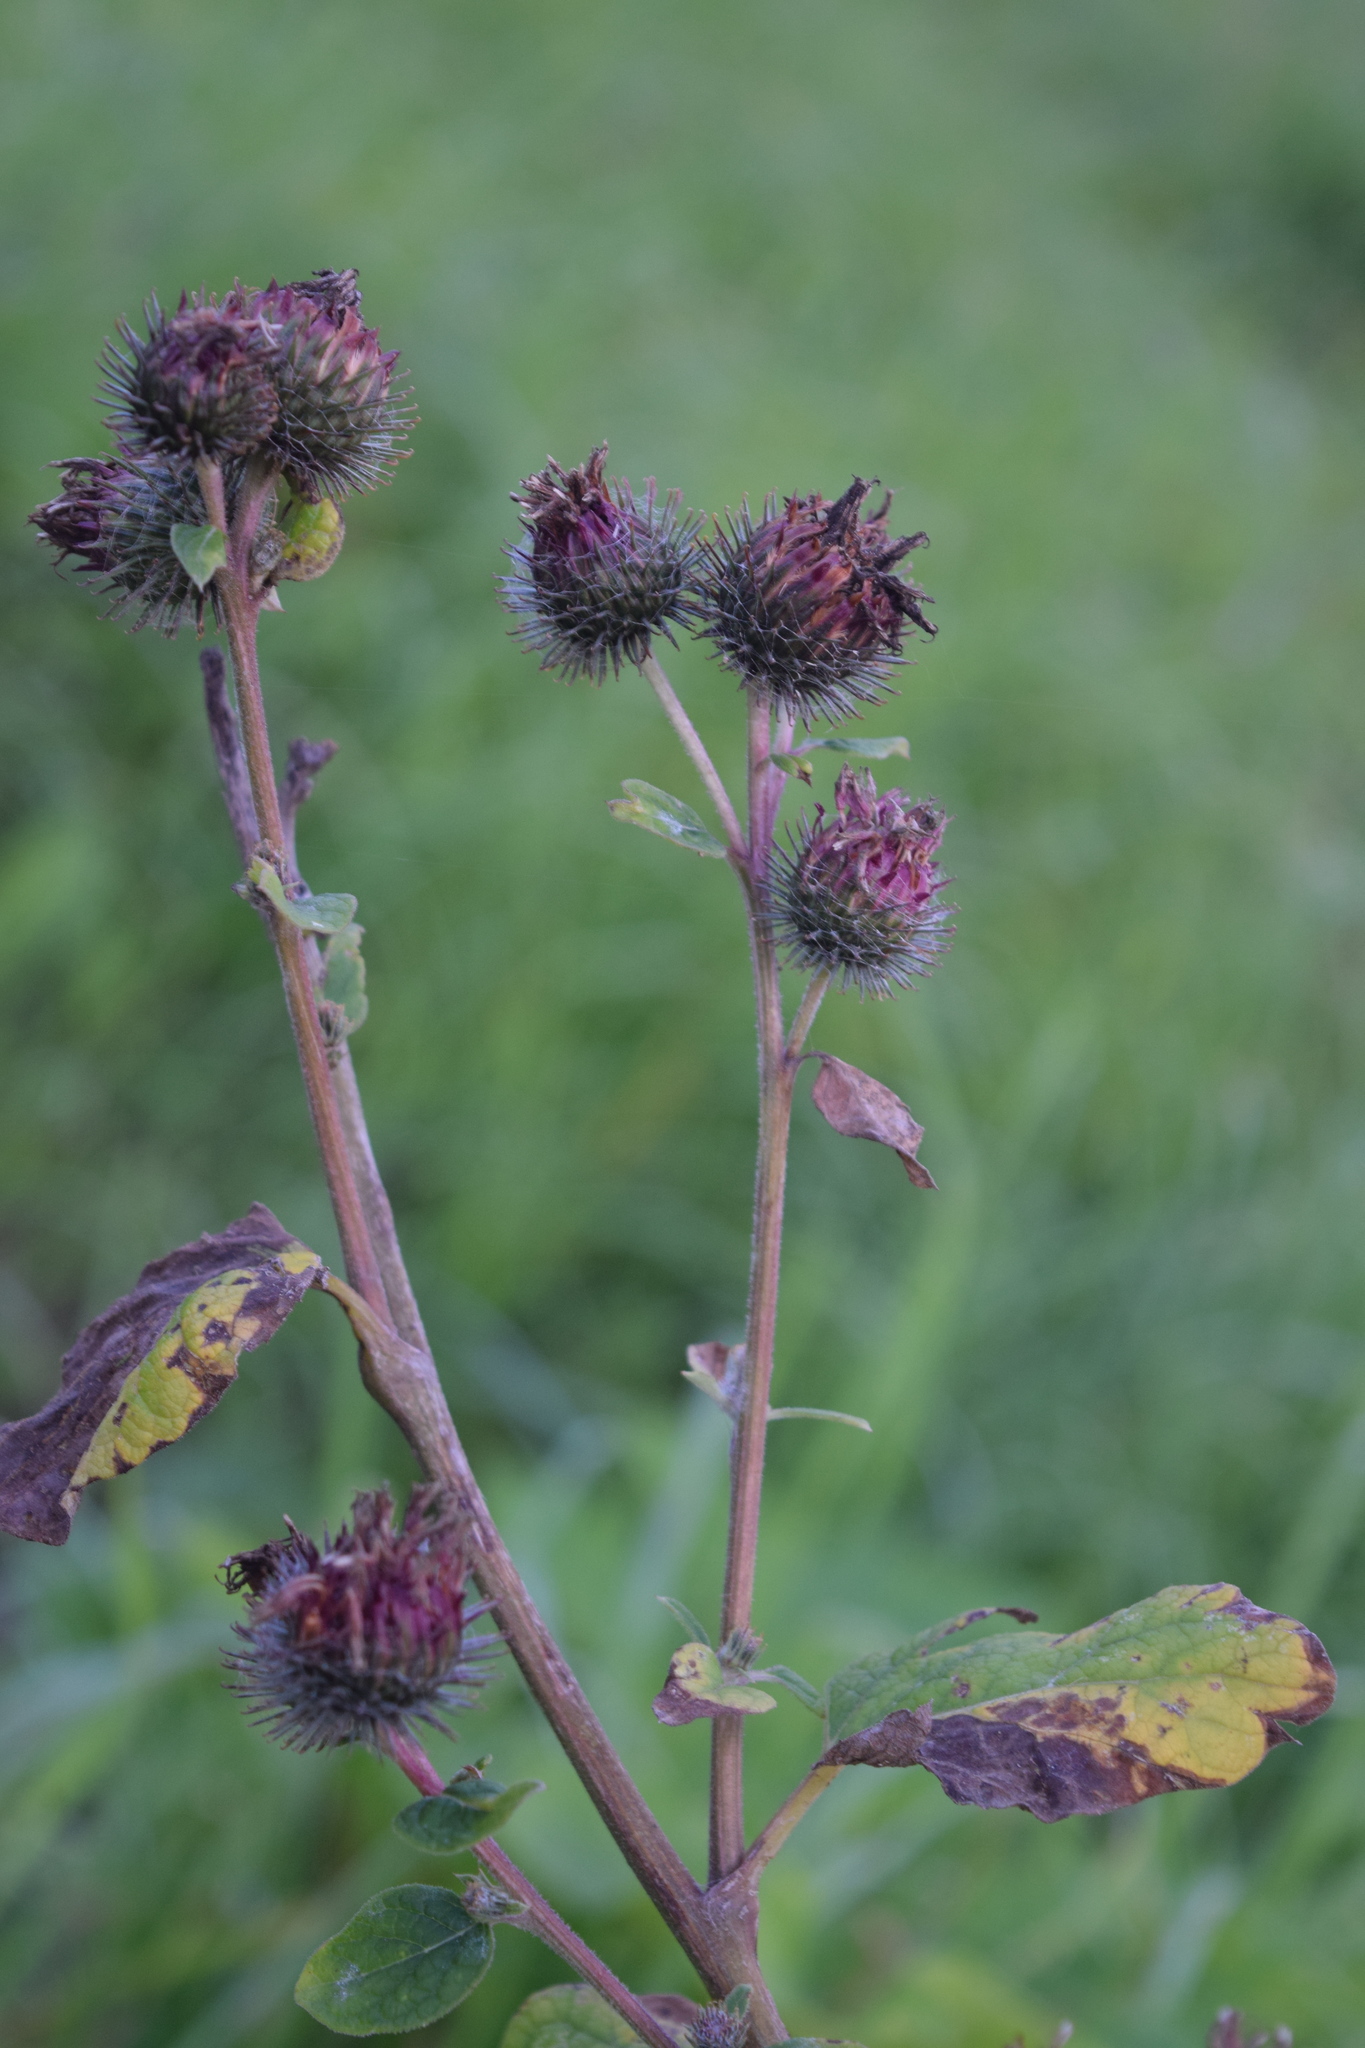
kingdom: Plantae
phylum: Tracheophyta
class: Magnoliopsida
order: Asterales
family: Asteraceae
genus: Arctium
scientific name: Arctium tomentosum
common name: Woolly burdock
